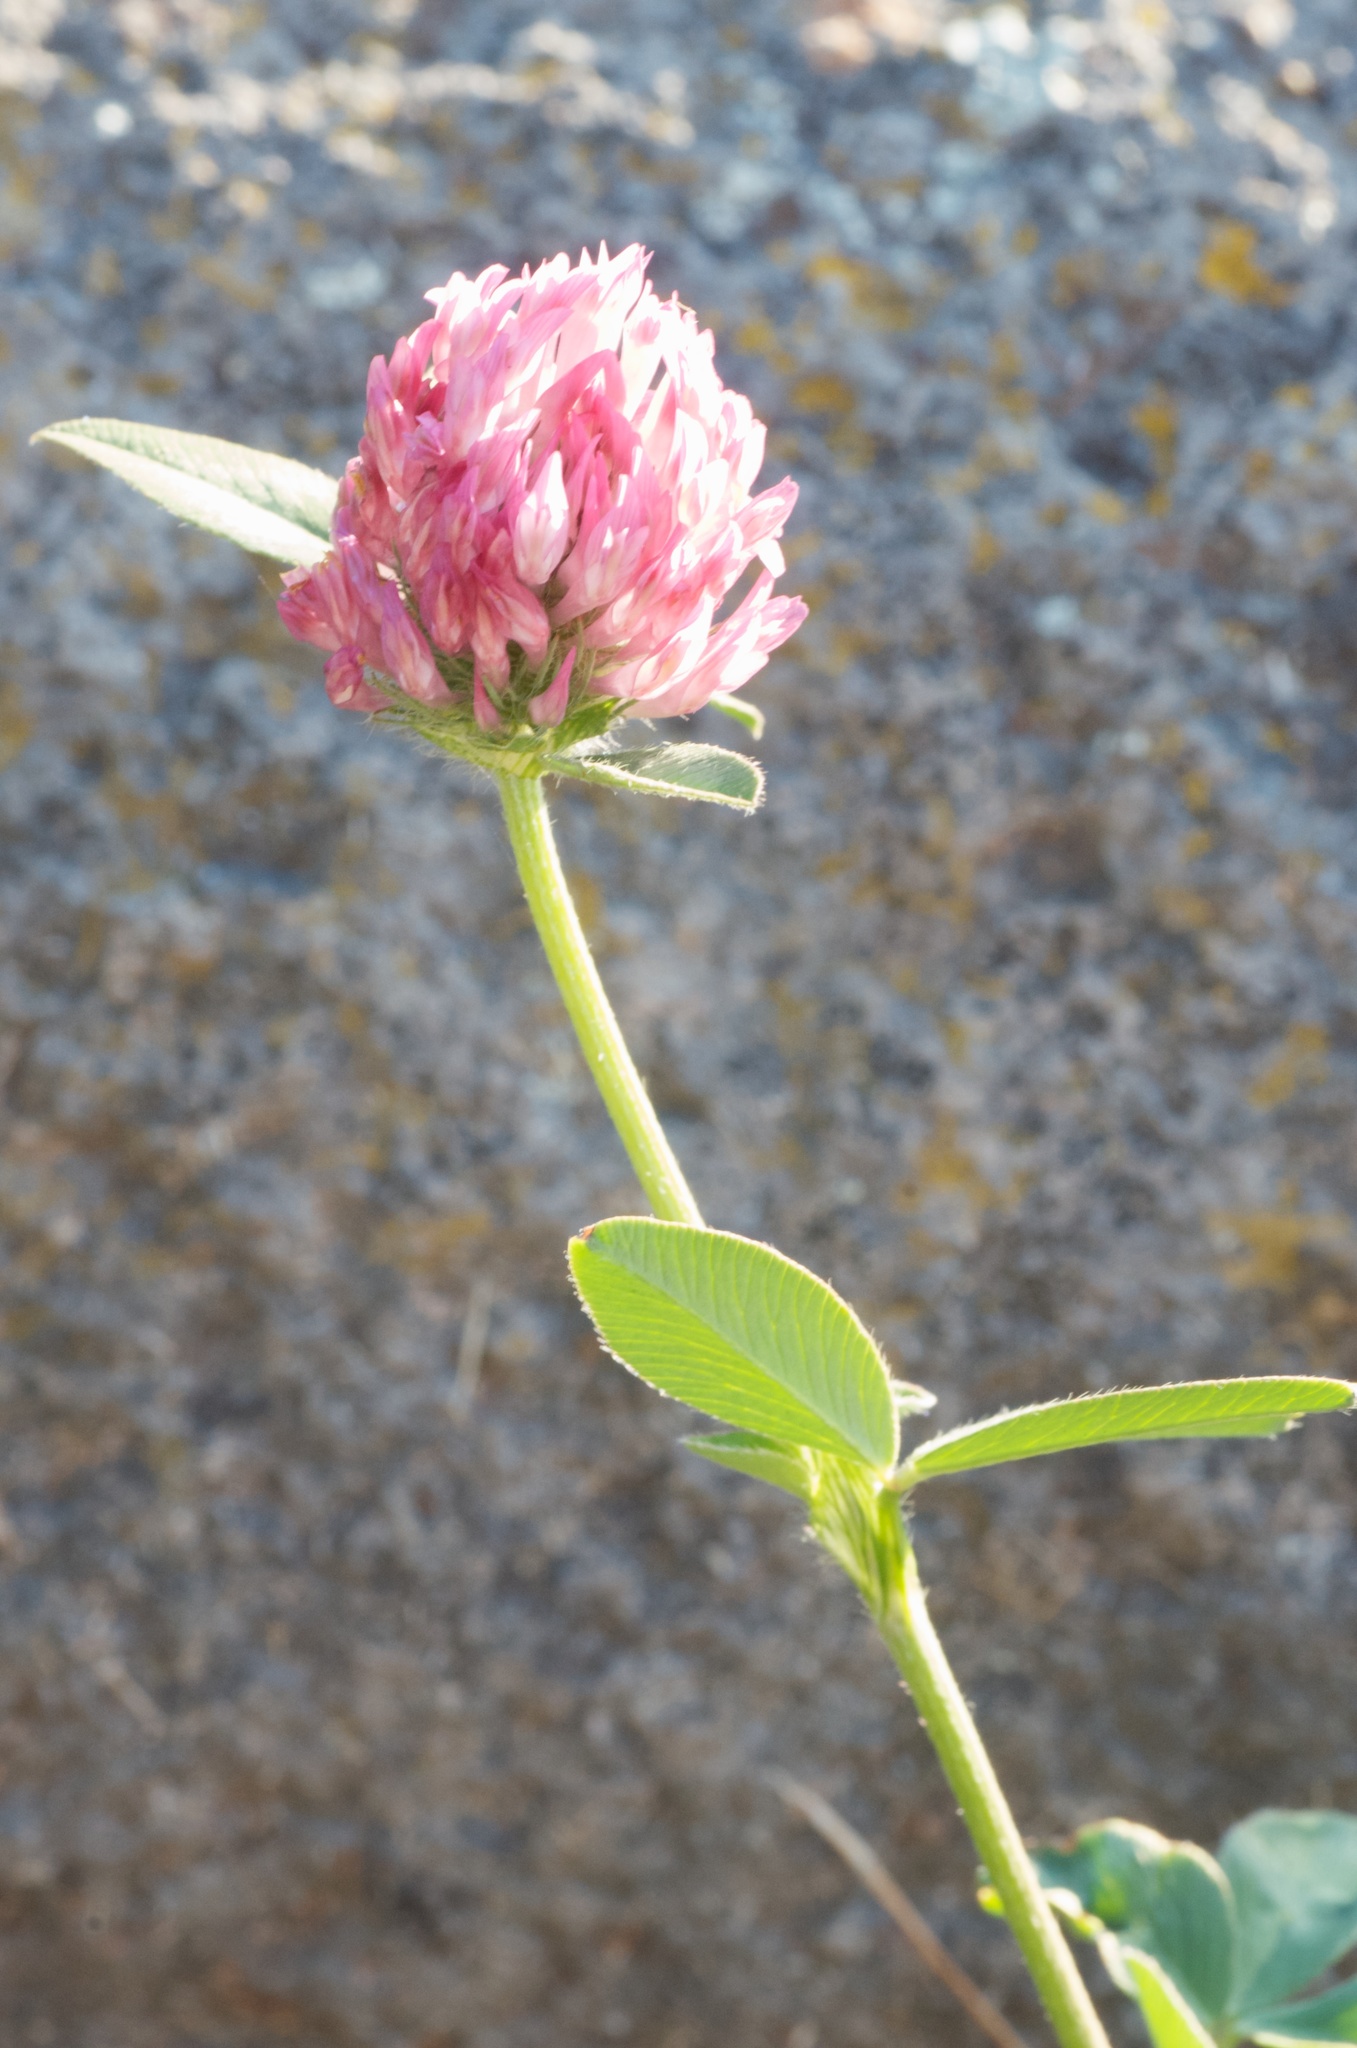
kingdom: Plantae
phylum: Tracheophyta
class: Magnoliopsida
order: Fabales
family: Fabaceae
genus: Trifolium
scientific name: Trifolium pratense
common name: Red clover
